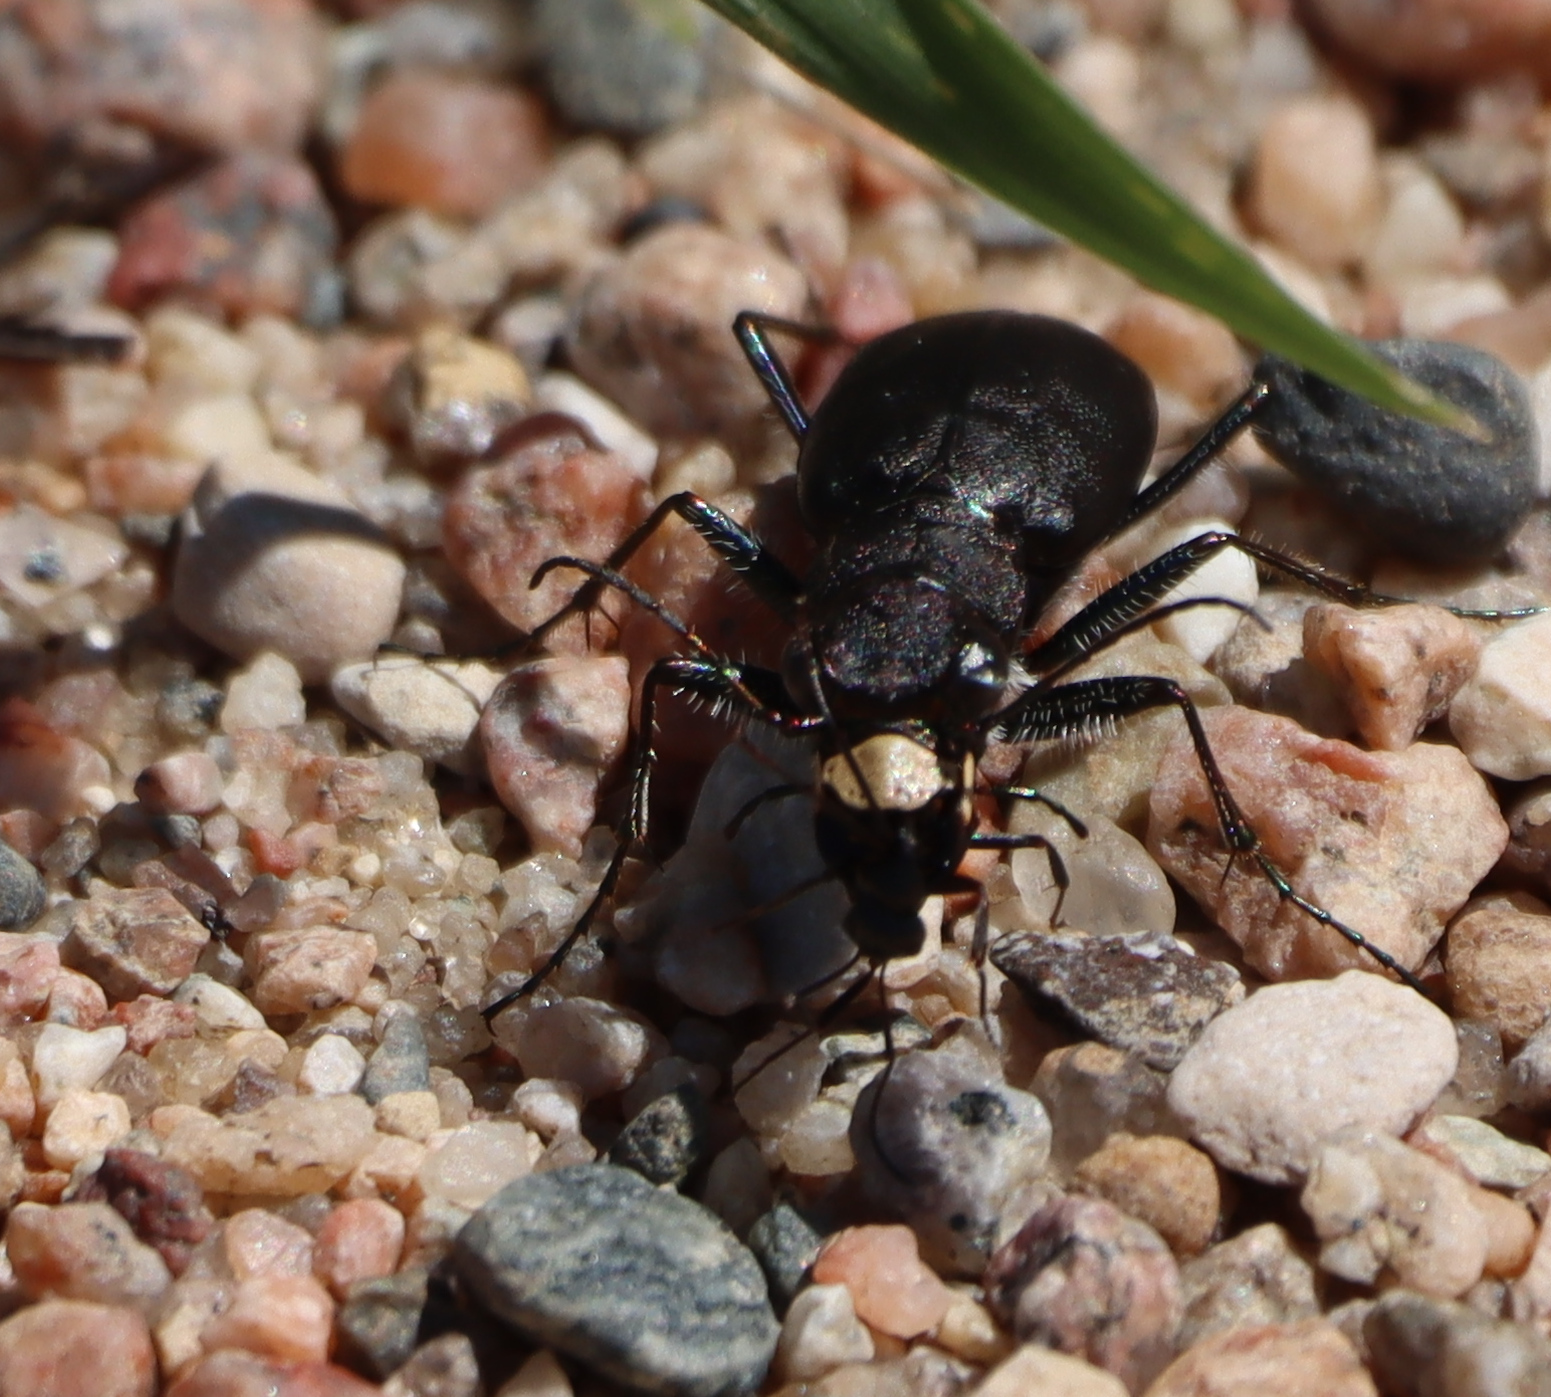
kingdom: Animalia
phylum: Arthropoda
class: Insecta
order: Coleoptera
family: Carabidae
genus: Cicindela
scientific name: Cicindela longilabris
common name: Boreal long-lipped tiger beetle
